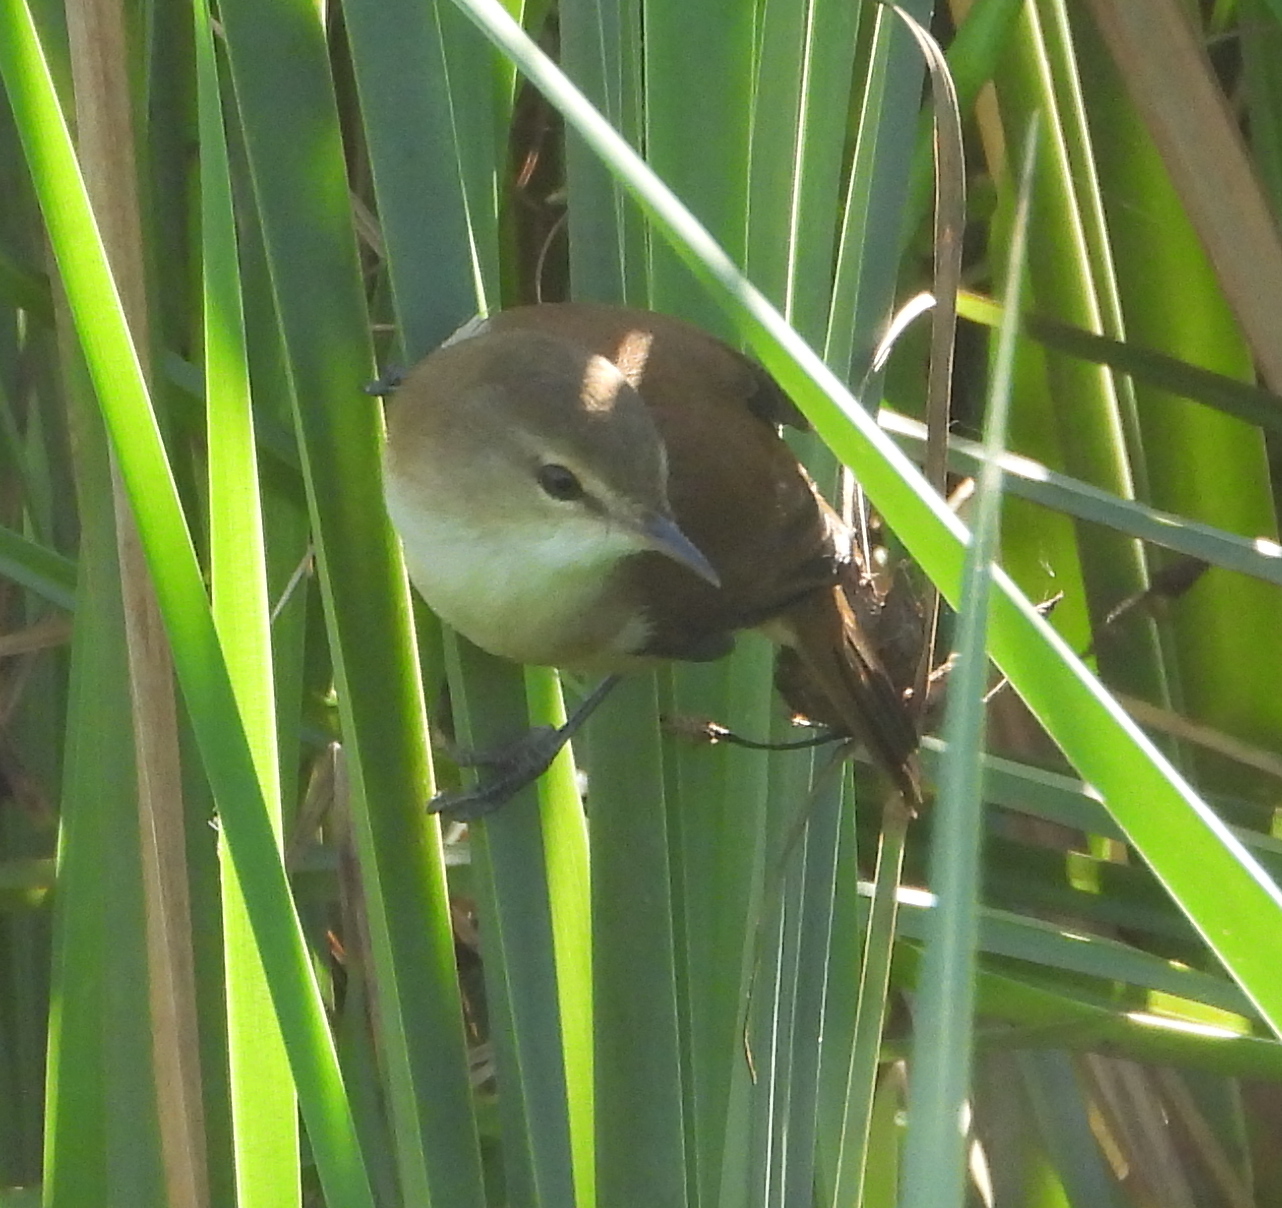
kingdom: Animalia
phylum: Chordata
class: Aves
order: Passeriformes
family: Acrocephalidae
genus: Acrocephalus
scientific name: Acrocephalus gracilirostris
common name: Lesser swamp warbler
